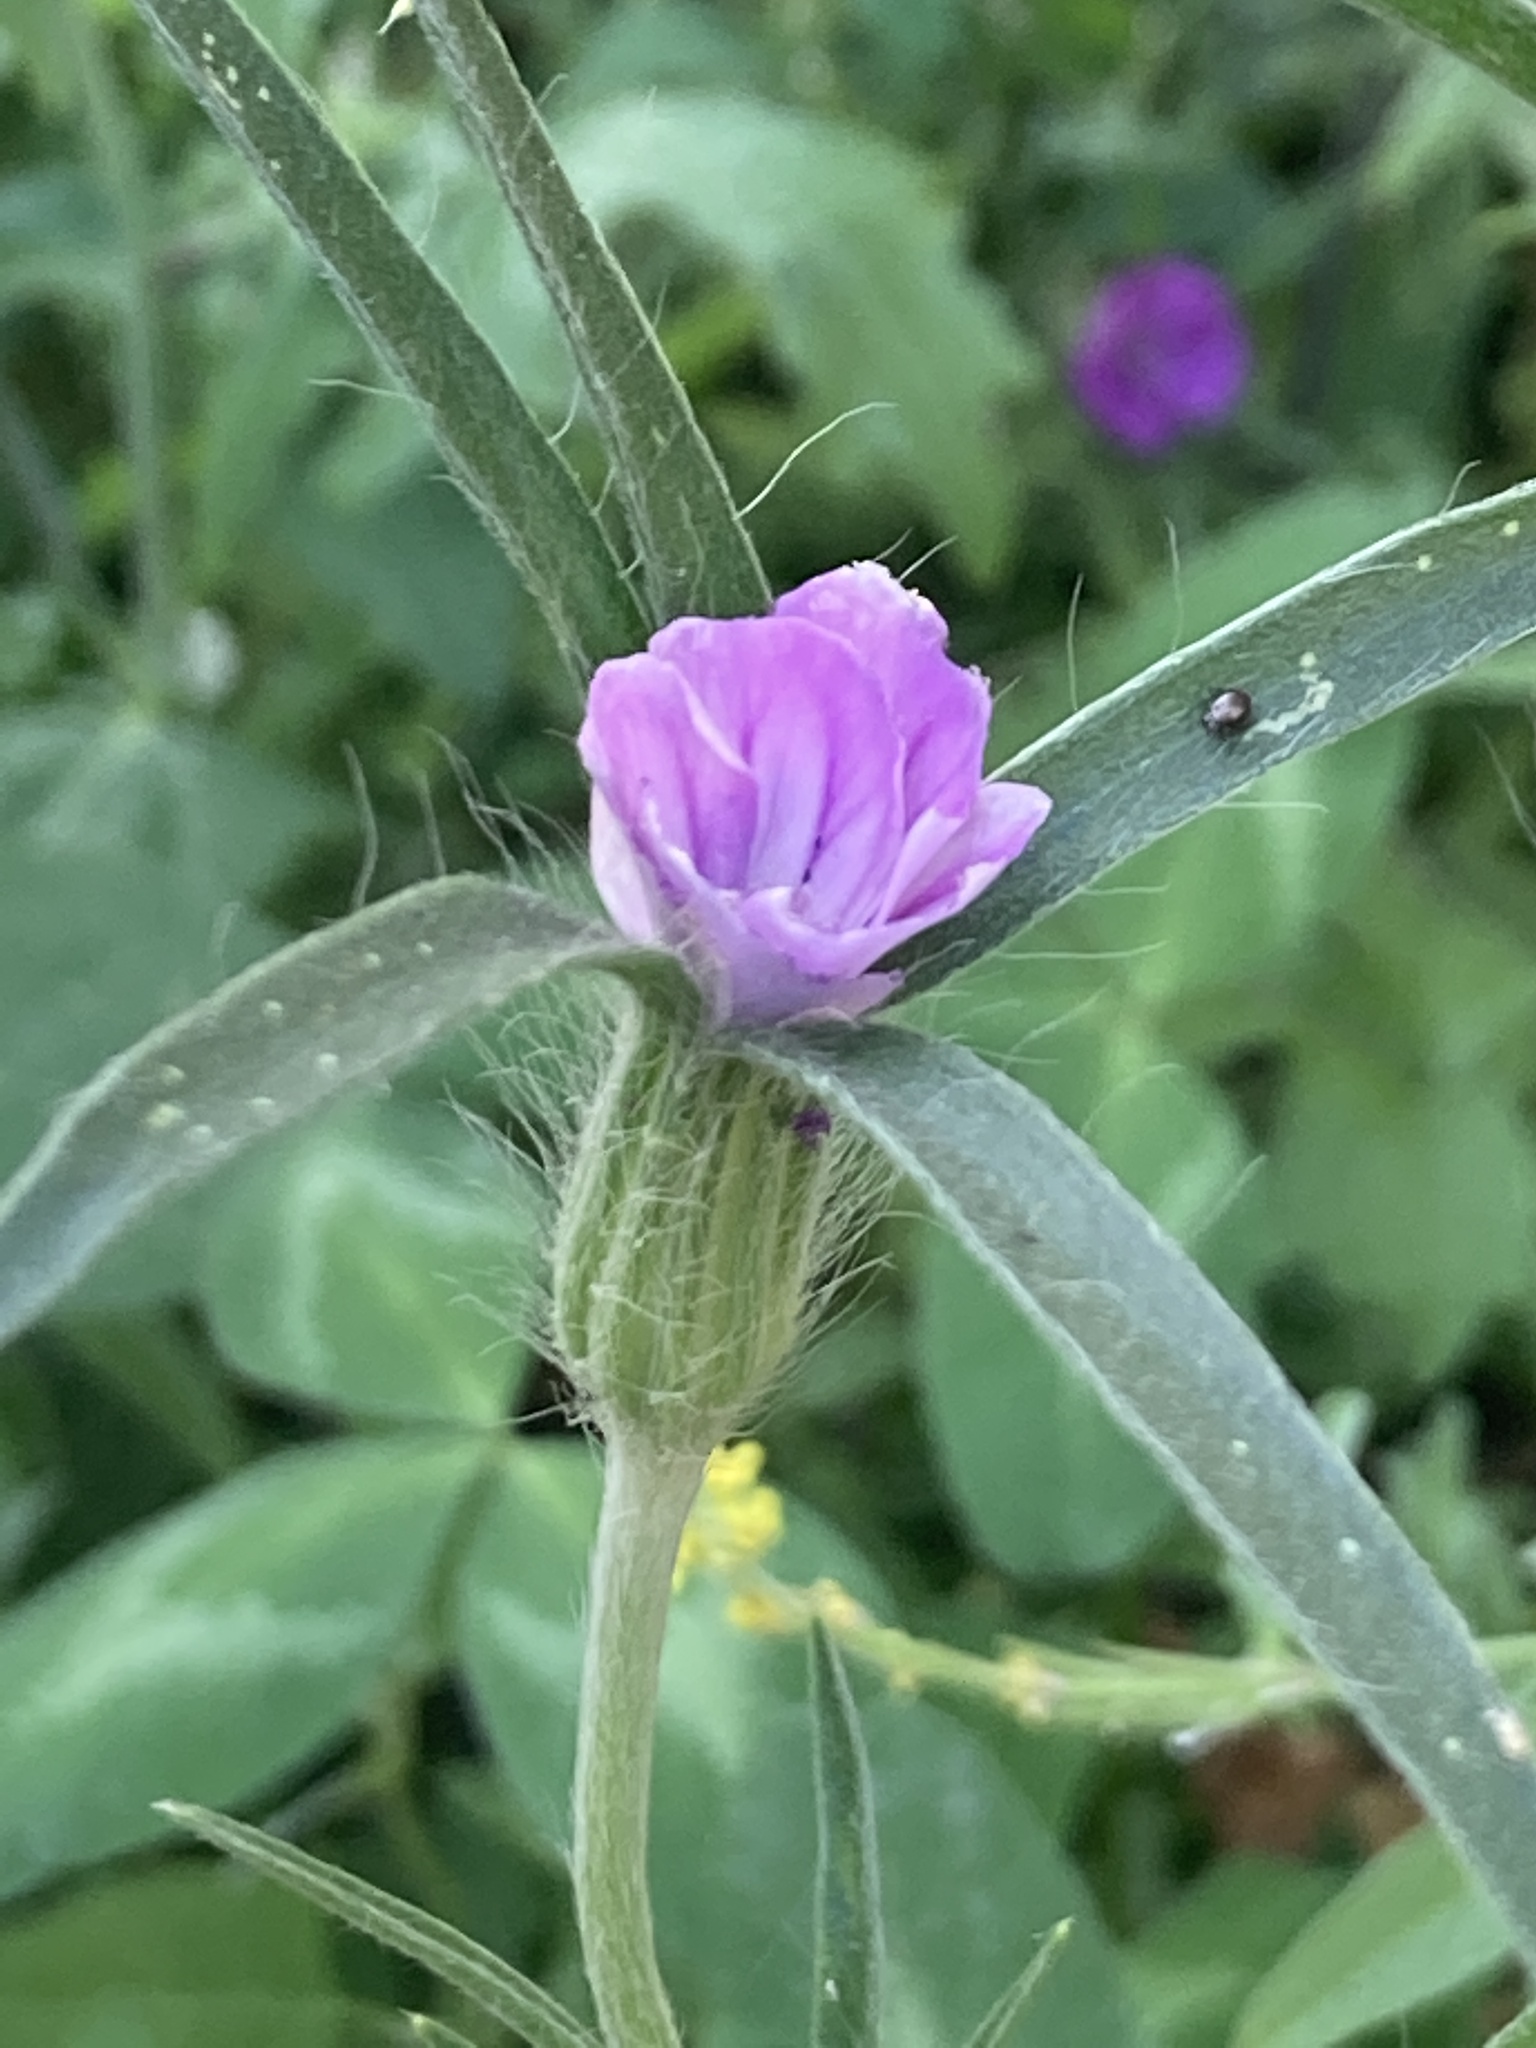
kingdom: Plantae
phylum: Tracheophyta
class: Magnoliopsida
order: Caryophyllales
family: Caryophyllaceae
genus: Agrostemma
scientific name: Agrostemma githago
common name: Common corncockle
